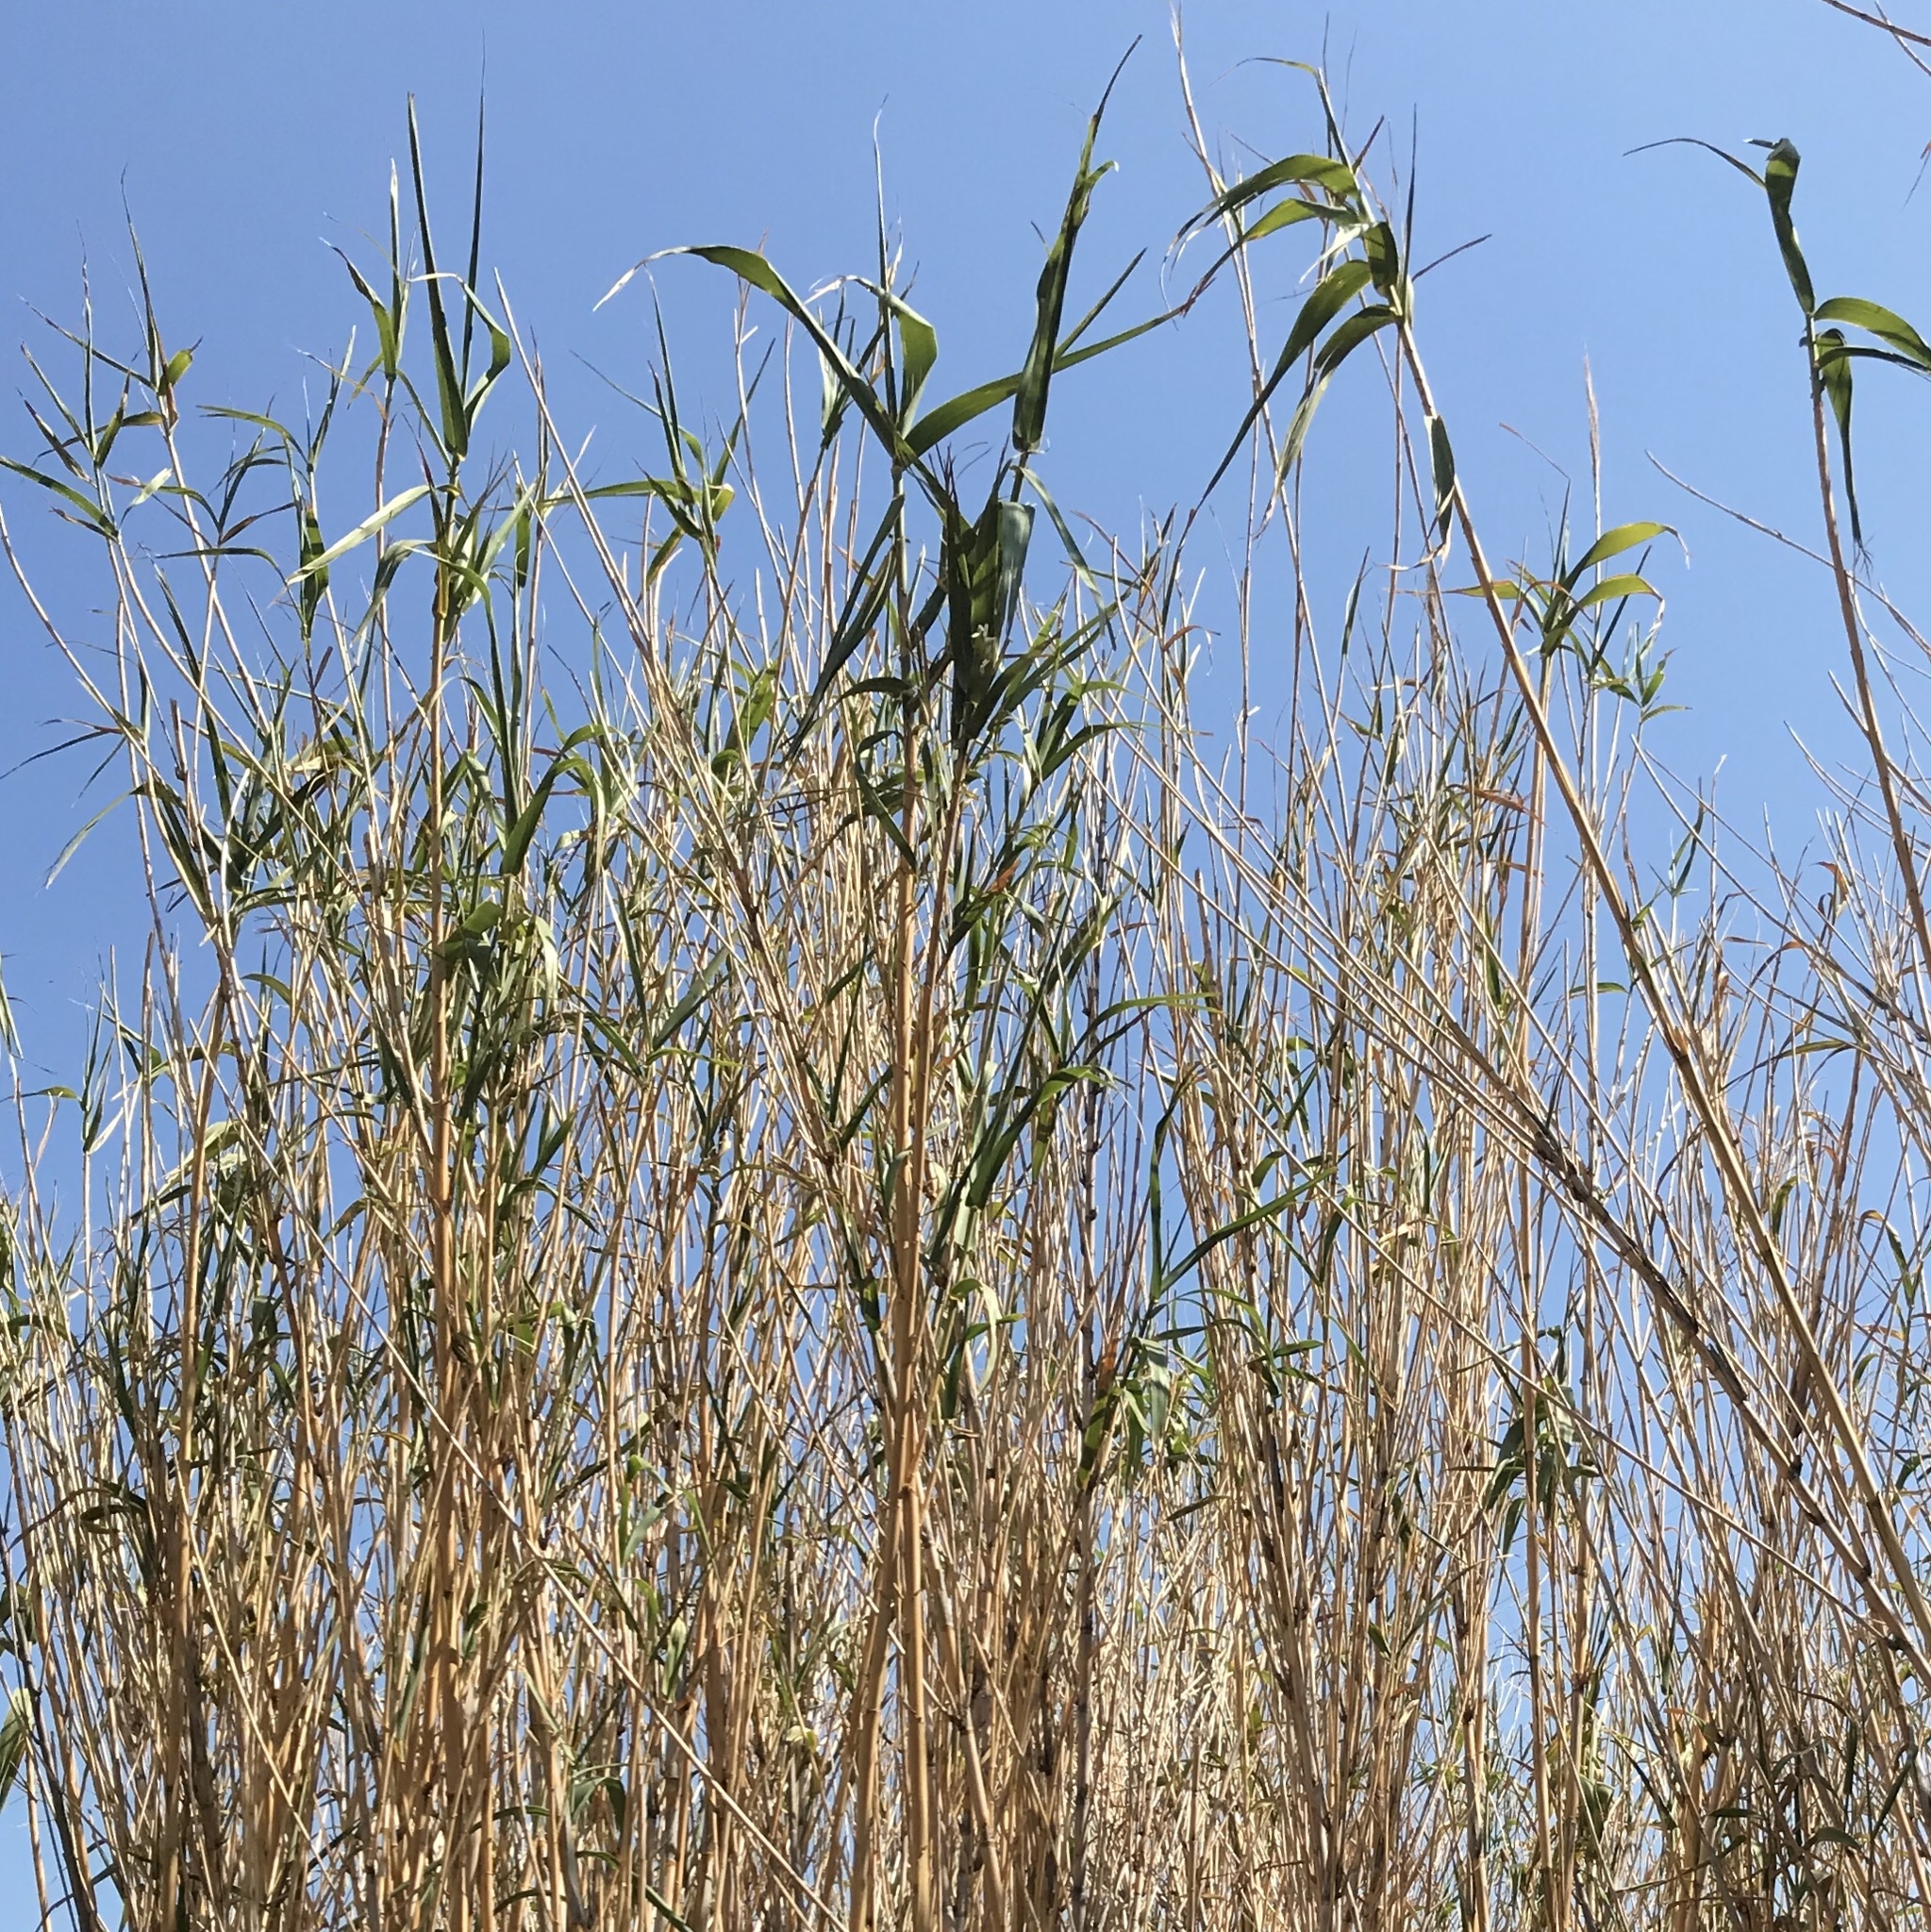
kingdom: Plantae
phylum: Tracheophyta
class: Liliopsida
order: Poales
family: Poaceae
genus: Arundo
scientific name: Arundo donax
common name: Giant reed
